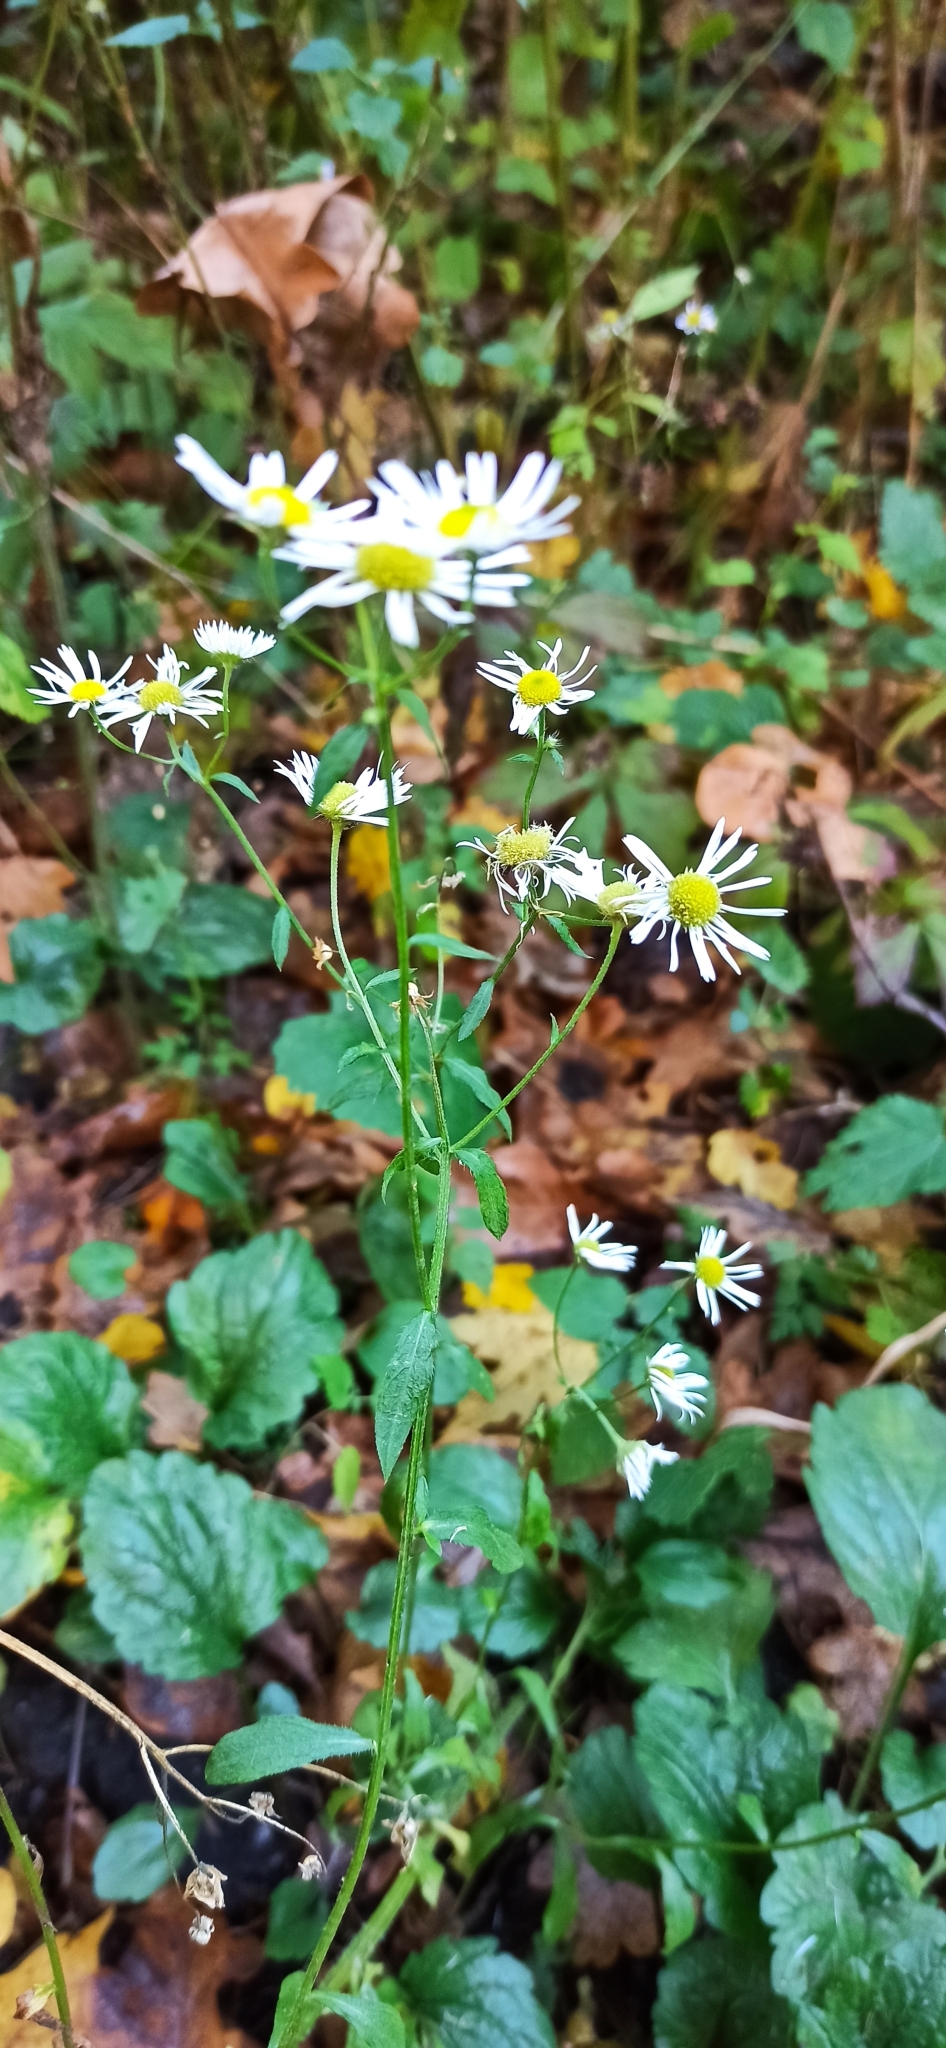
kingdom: Plantae
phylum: Tracheophyta
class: Magnoliopsida
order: Asterales
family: Asteraceae
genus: Erigeron
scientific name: Erigeron annuus
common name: Tall fleabane
